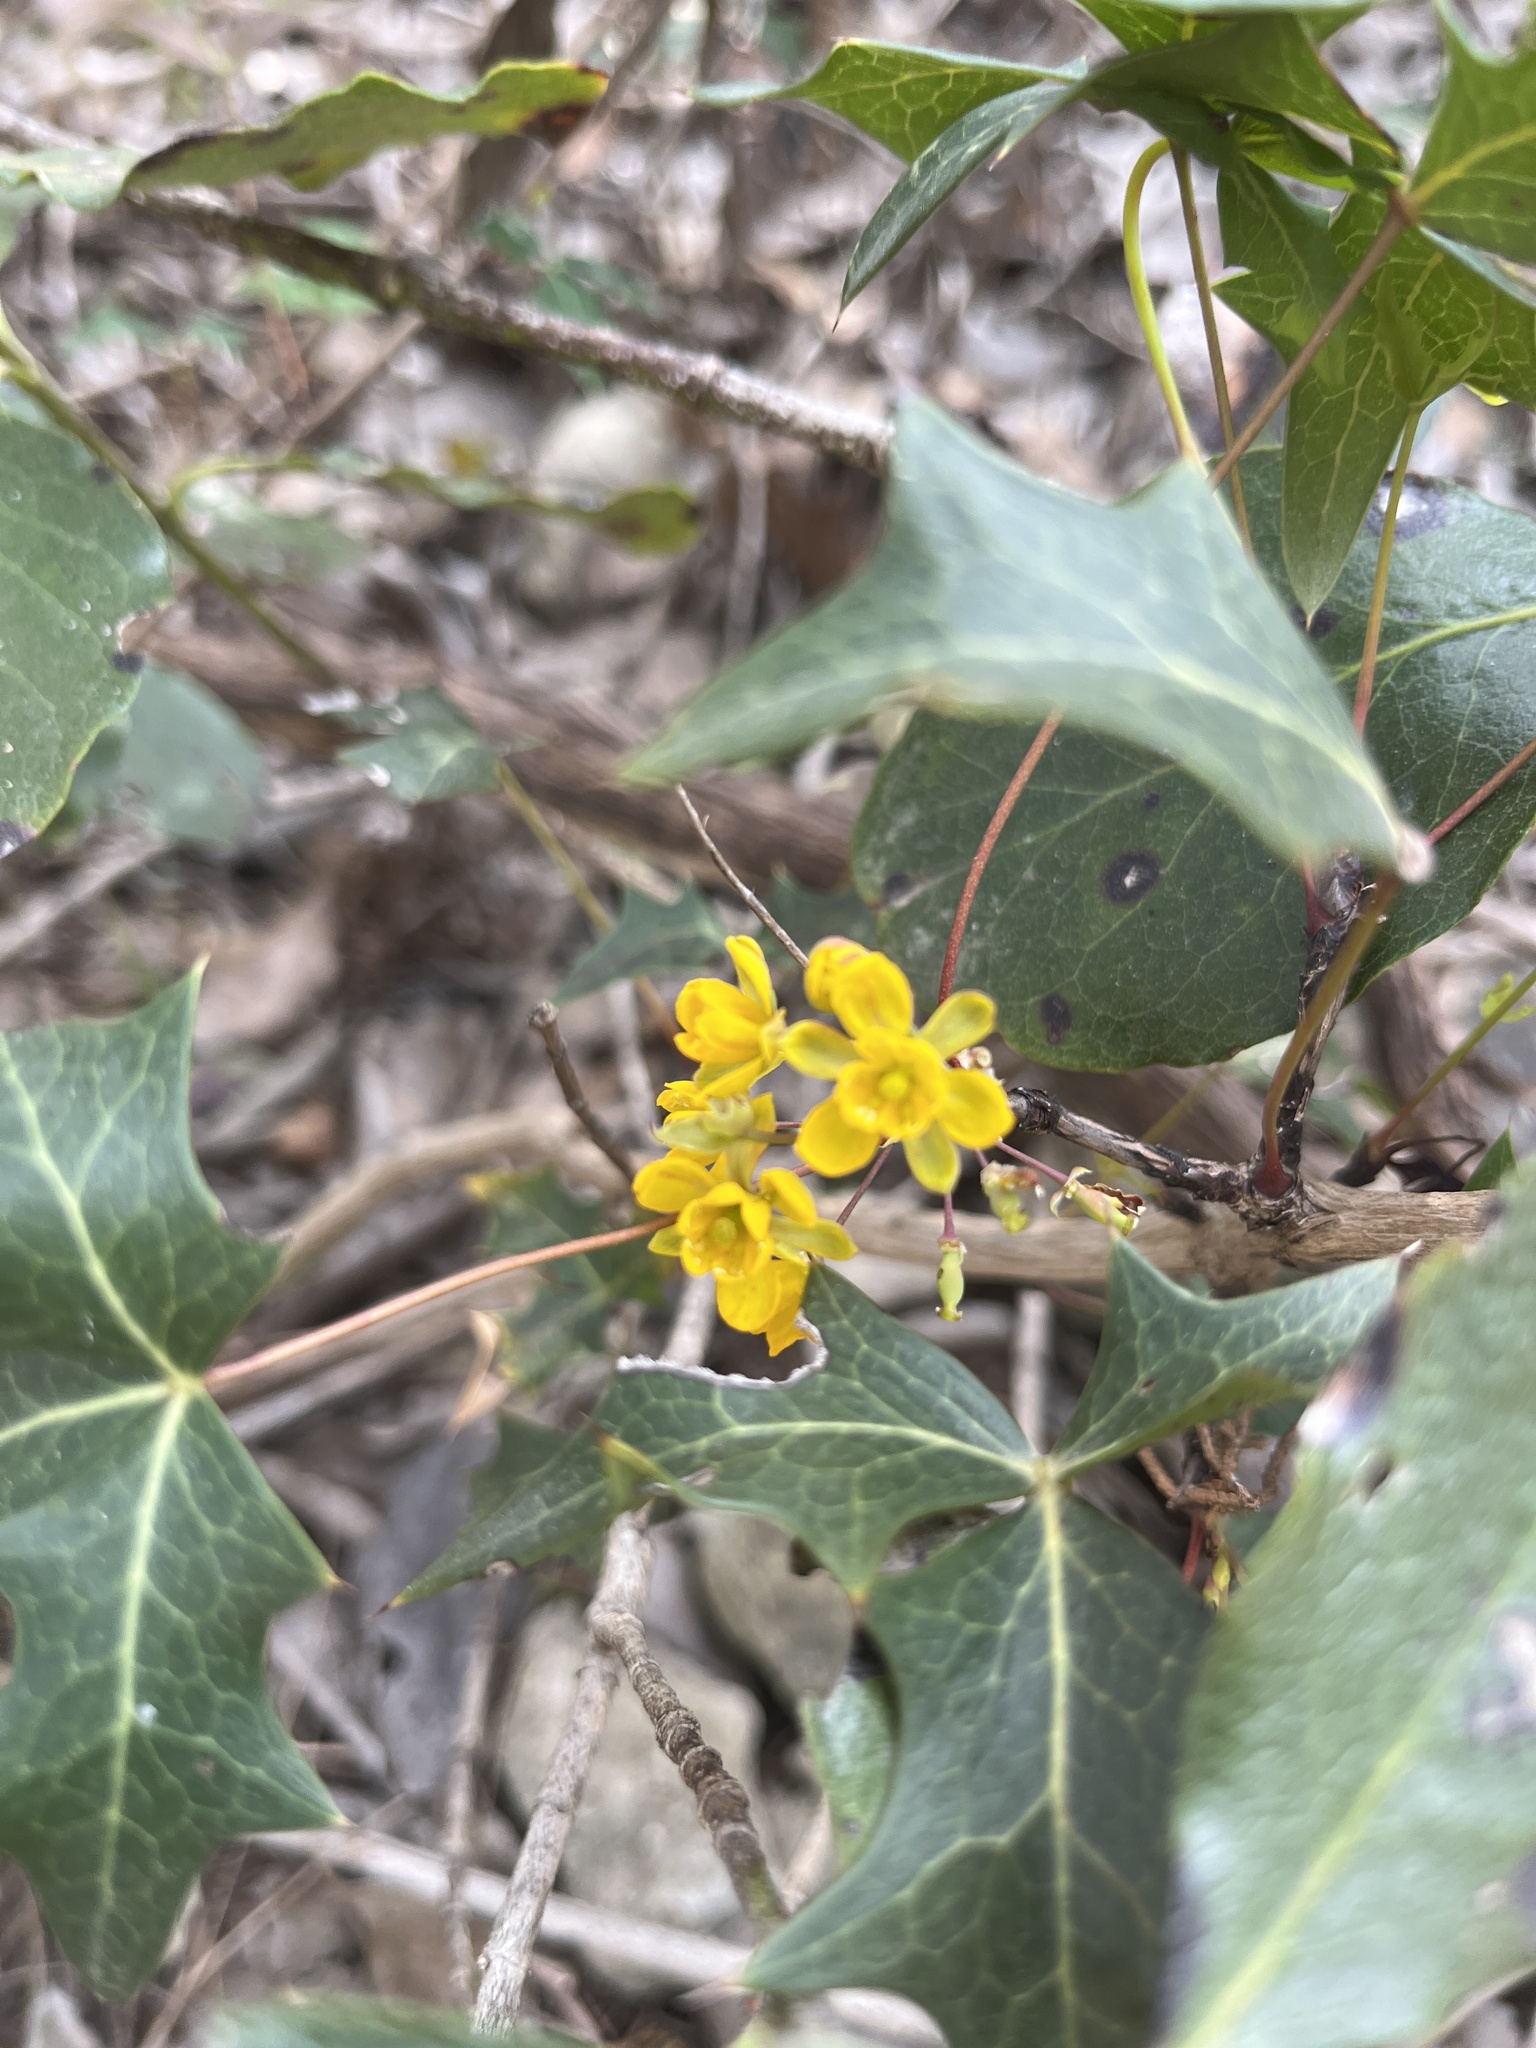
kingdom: Plantae
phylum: Tracheophyta
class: Magnoliopsida
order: Ranunculales
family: Berberidaceae
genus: Alloberberis
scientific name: Alloberberis trifoliolata
